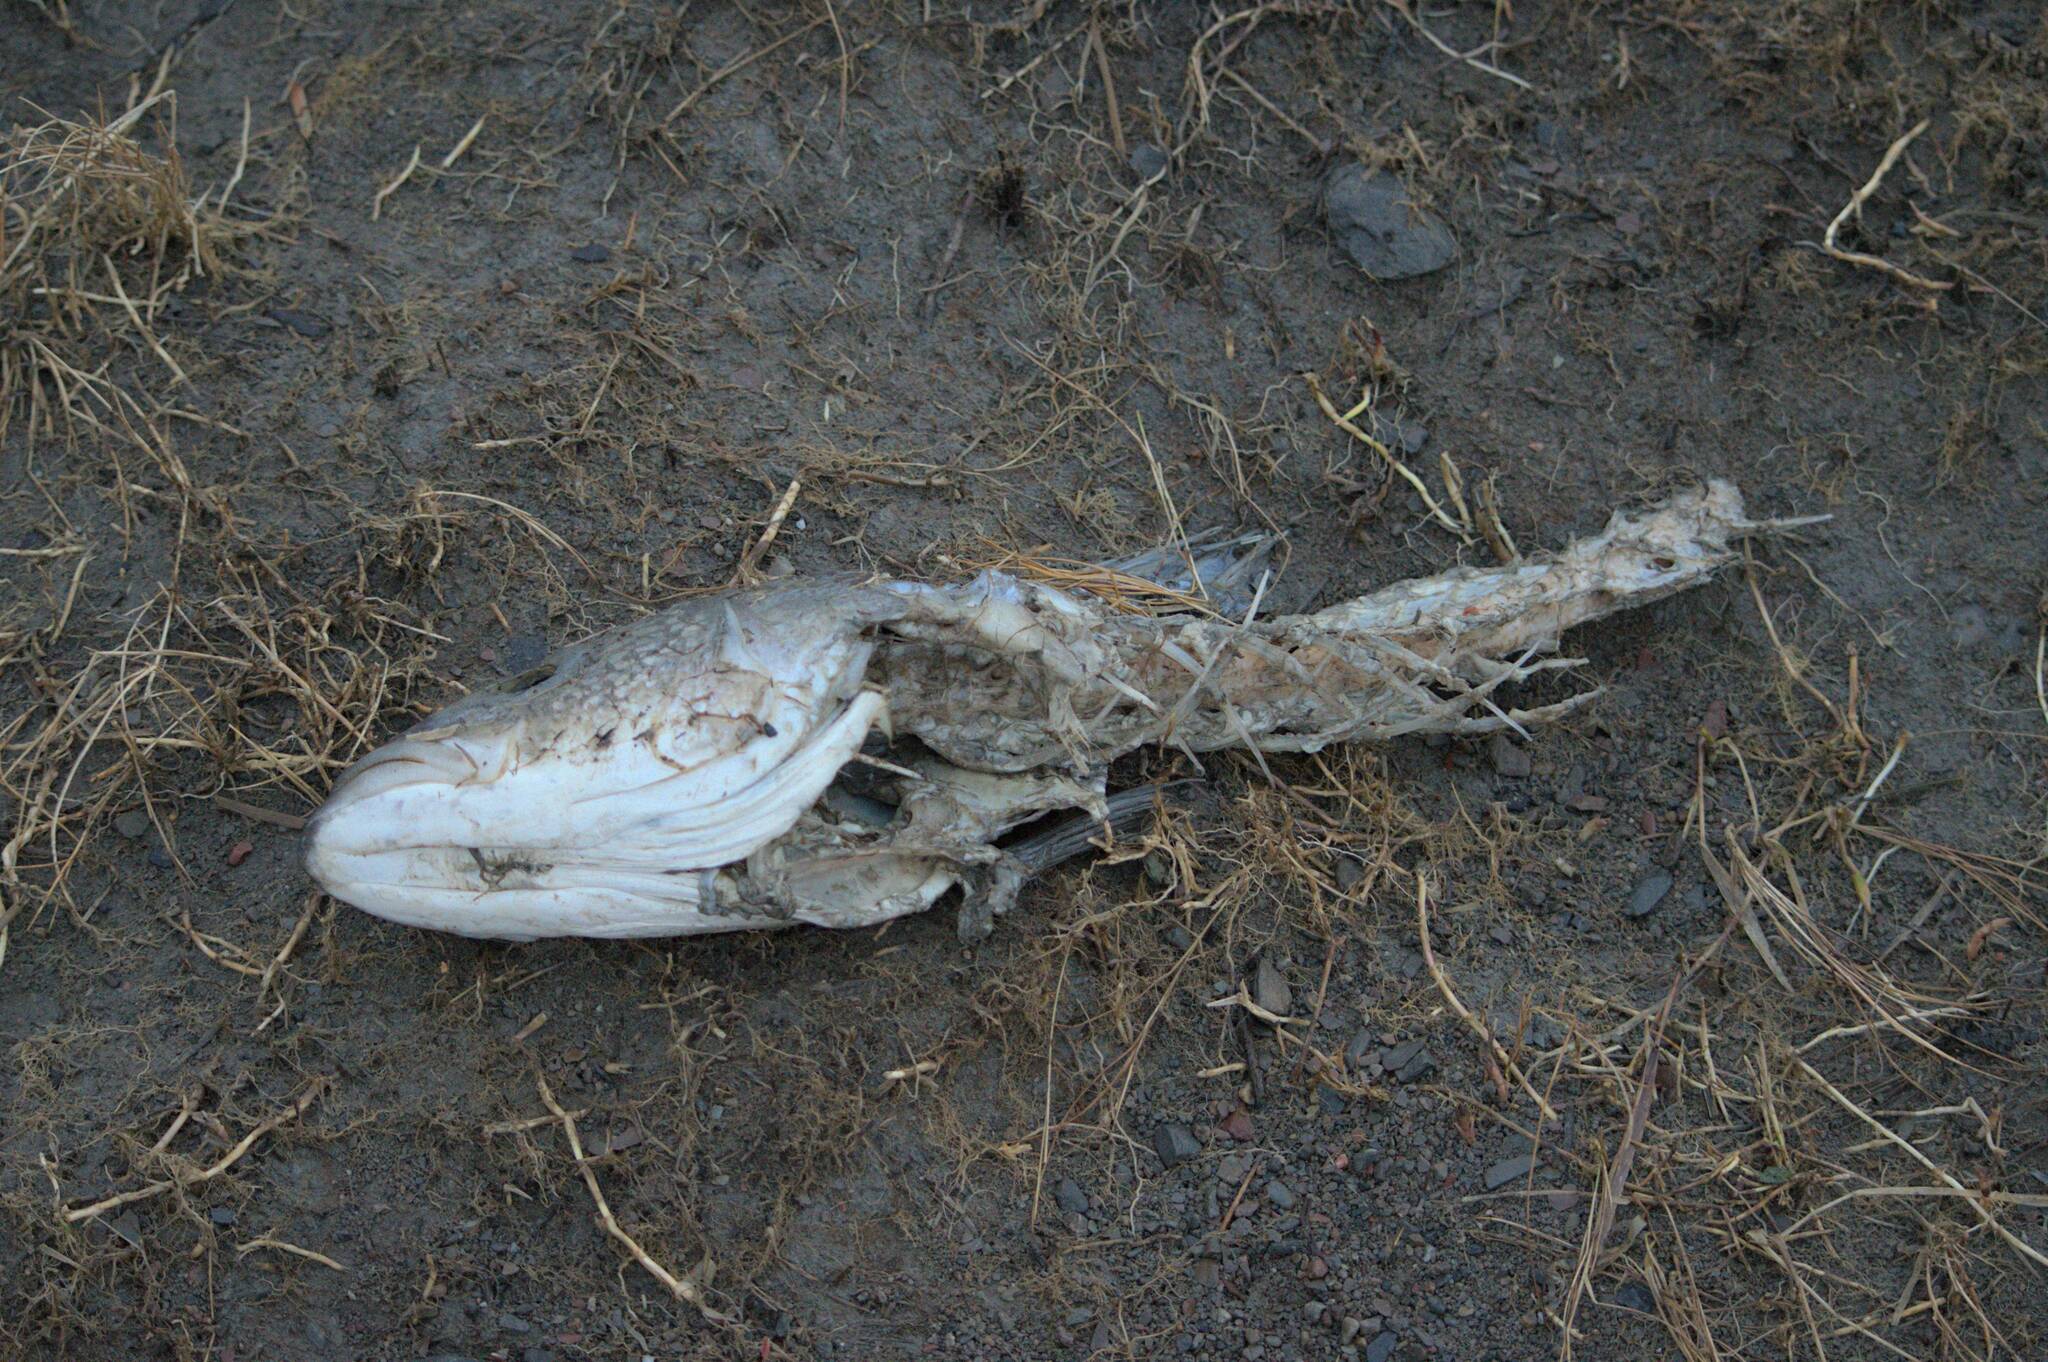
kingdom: Animalia
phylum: Chordata
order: Perciformes
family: Moronidae
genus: Morone
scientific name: Morone saxatilis
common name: Striped bass
